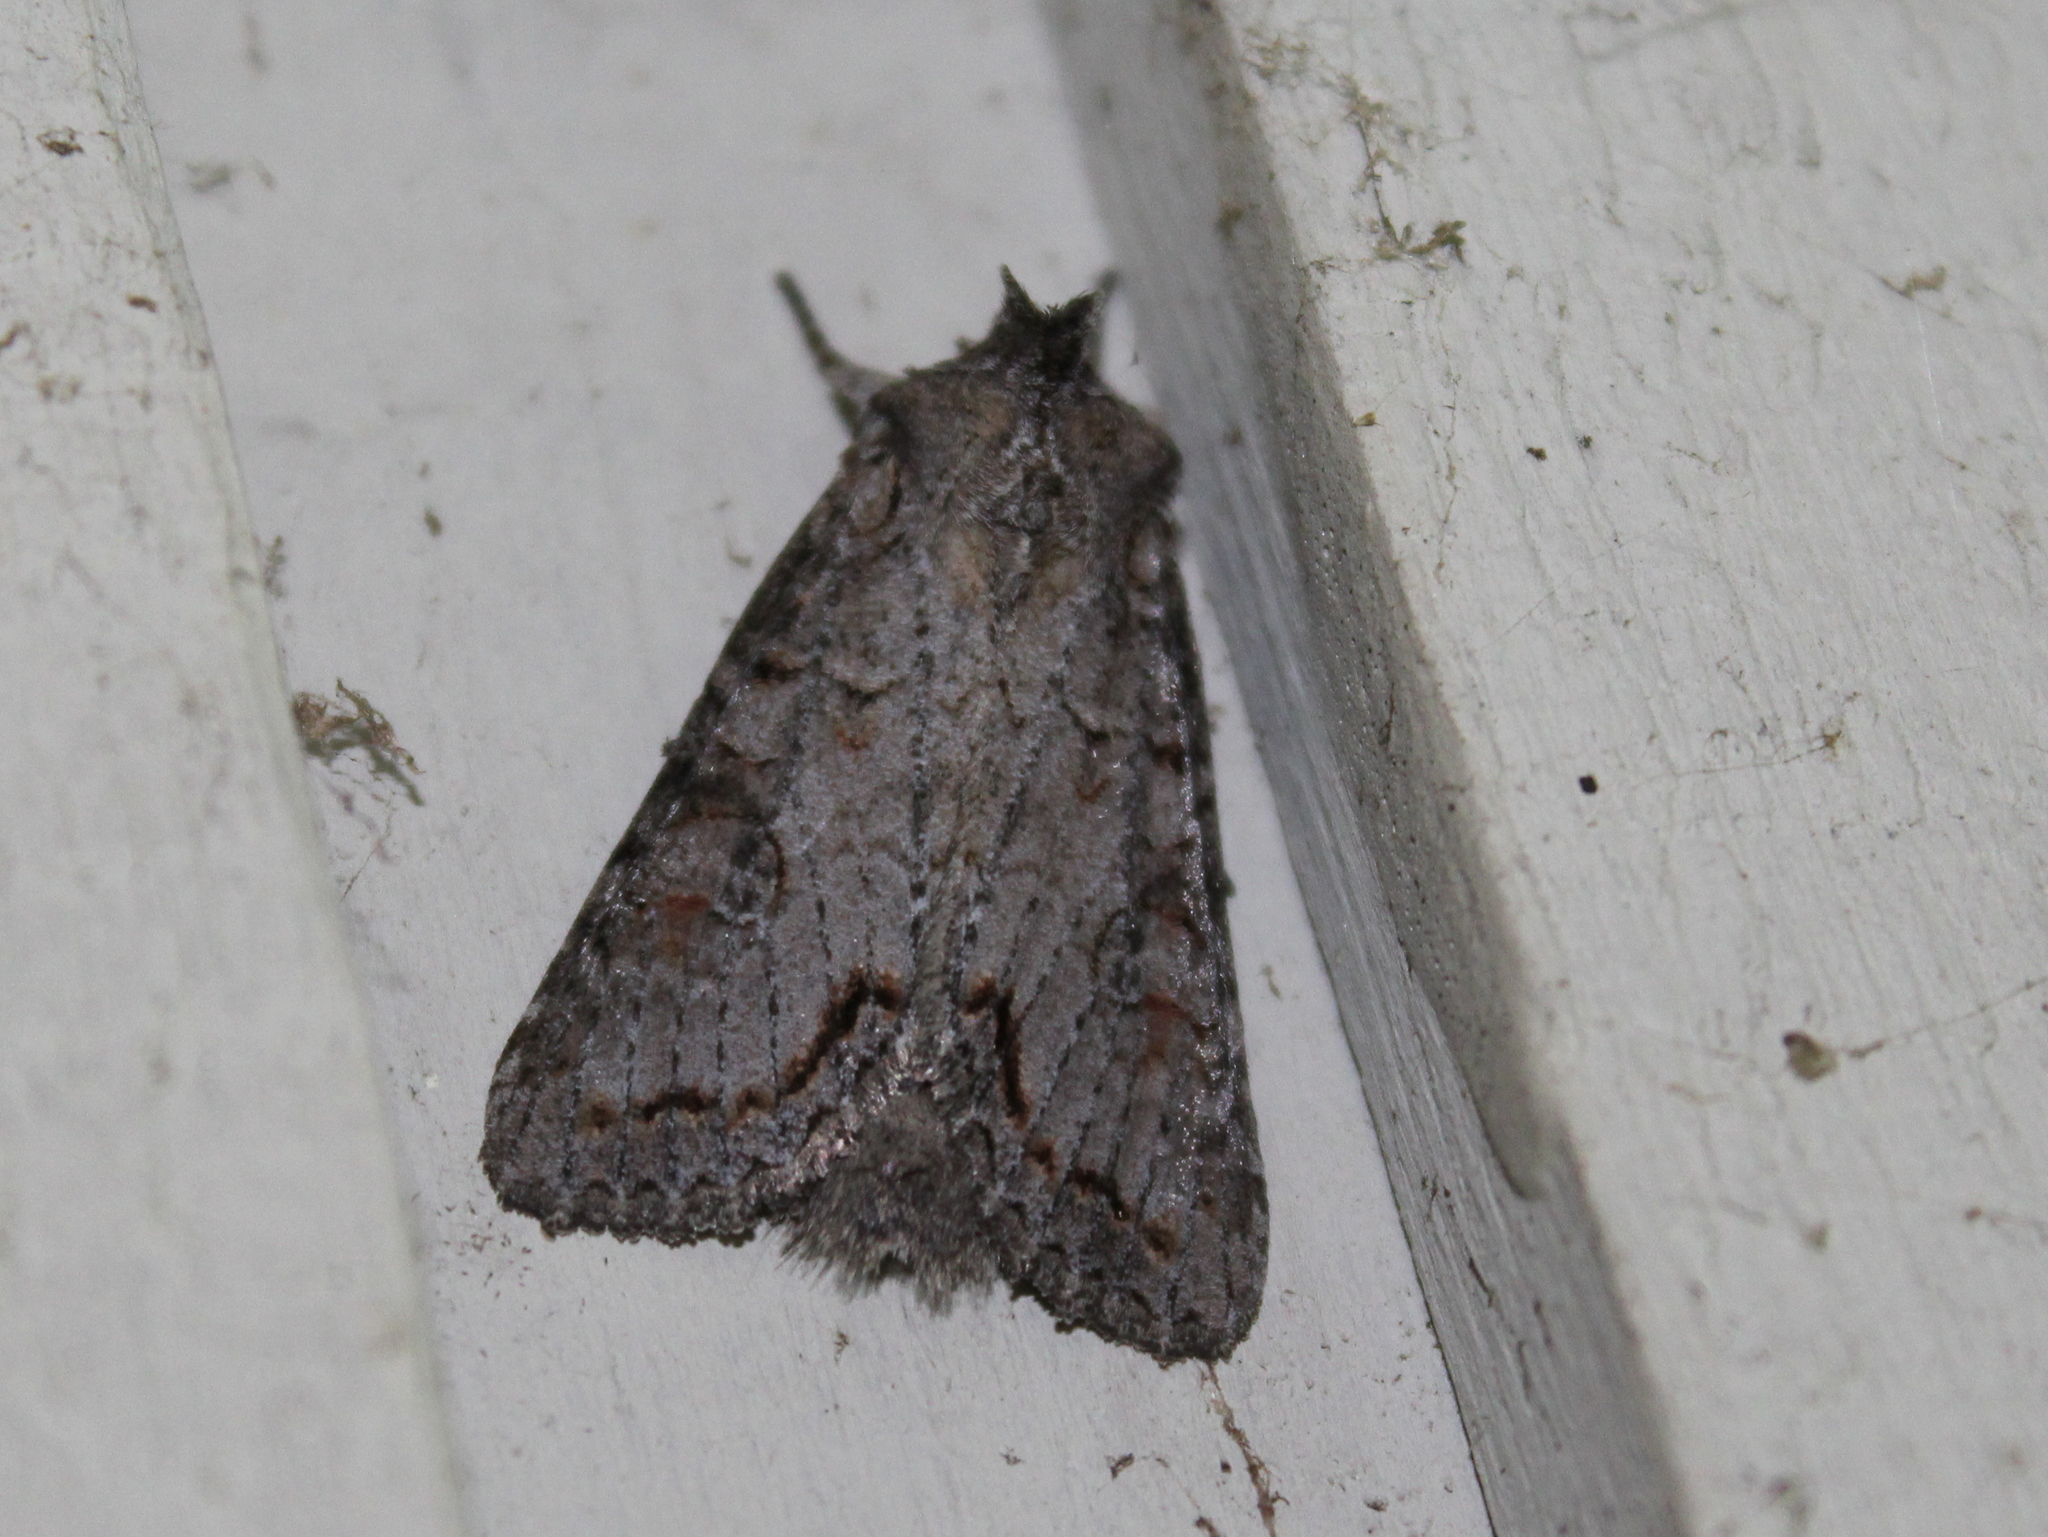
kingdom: Animalia
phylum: Arthropoda
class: Insecta
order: Lepidoptera
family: Noctuidae
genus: Polia
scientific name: Polia purpurissata
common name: Purple arches moth
